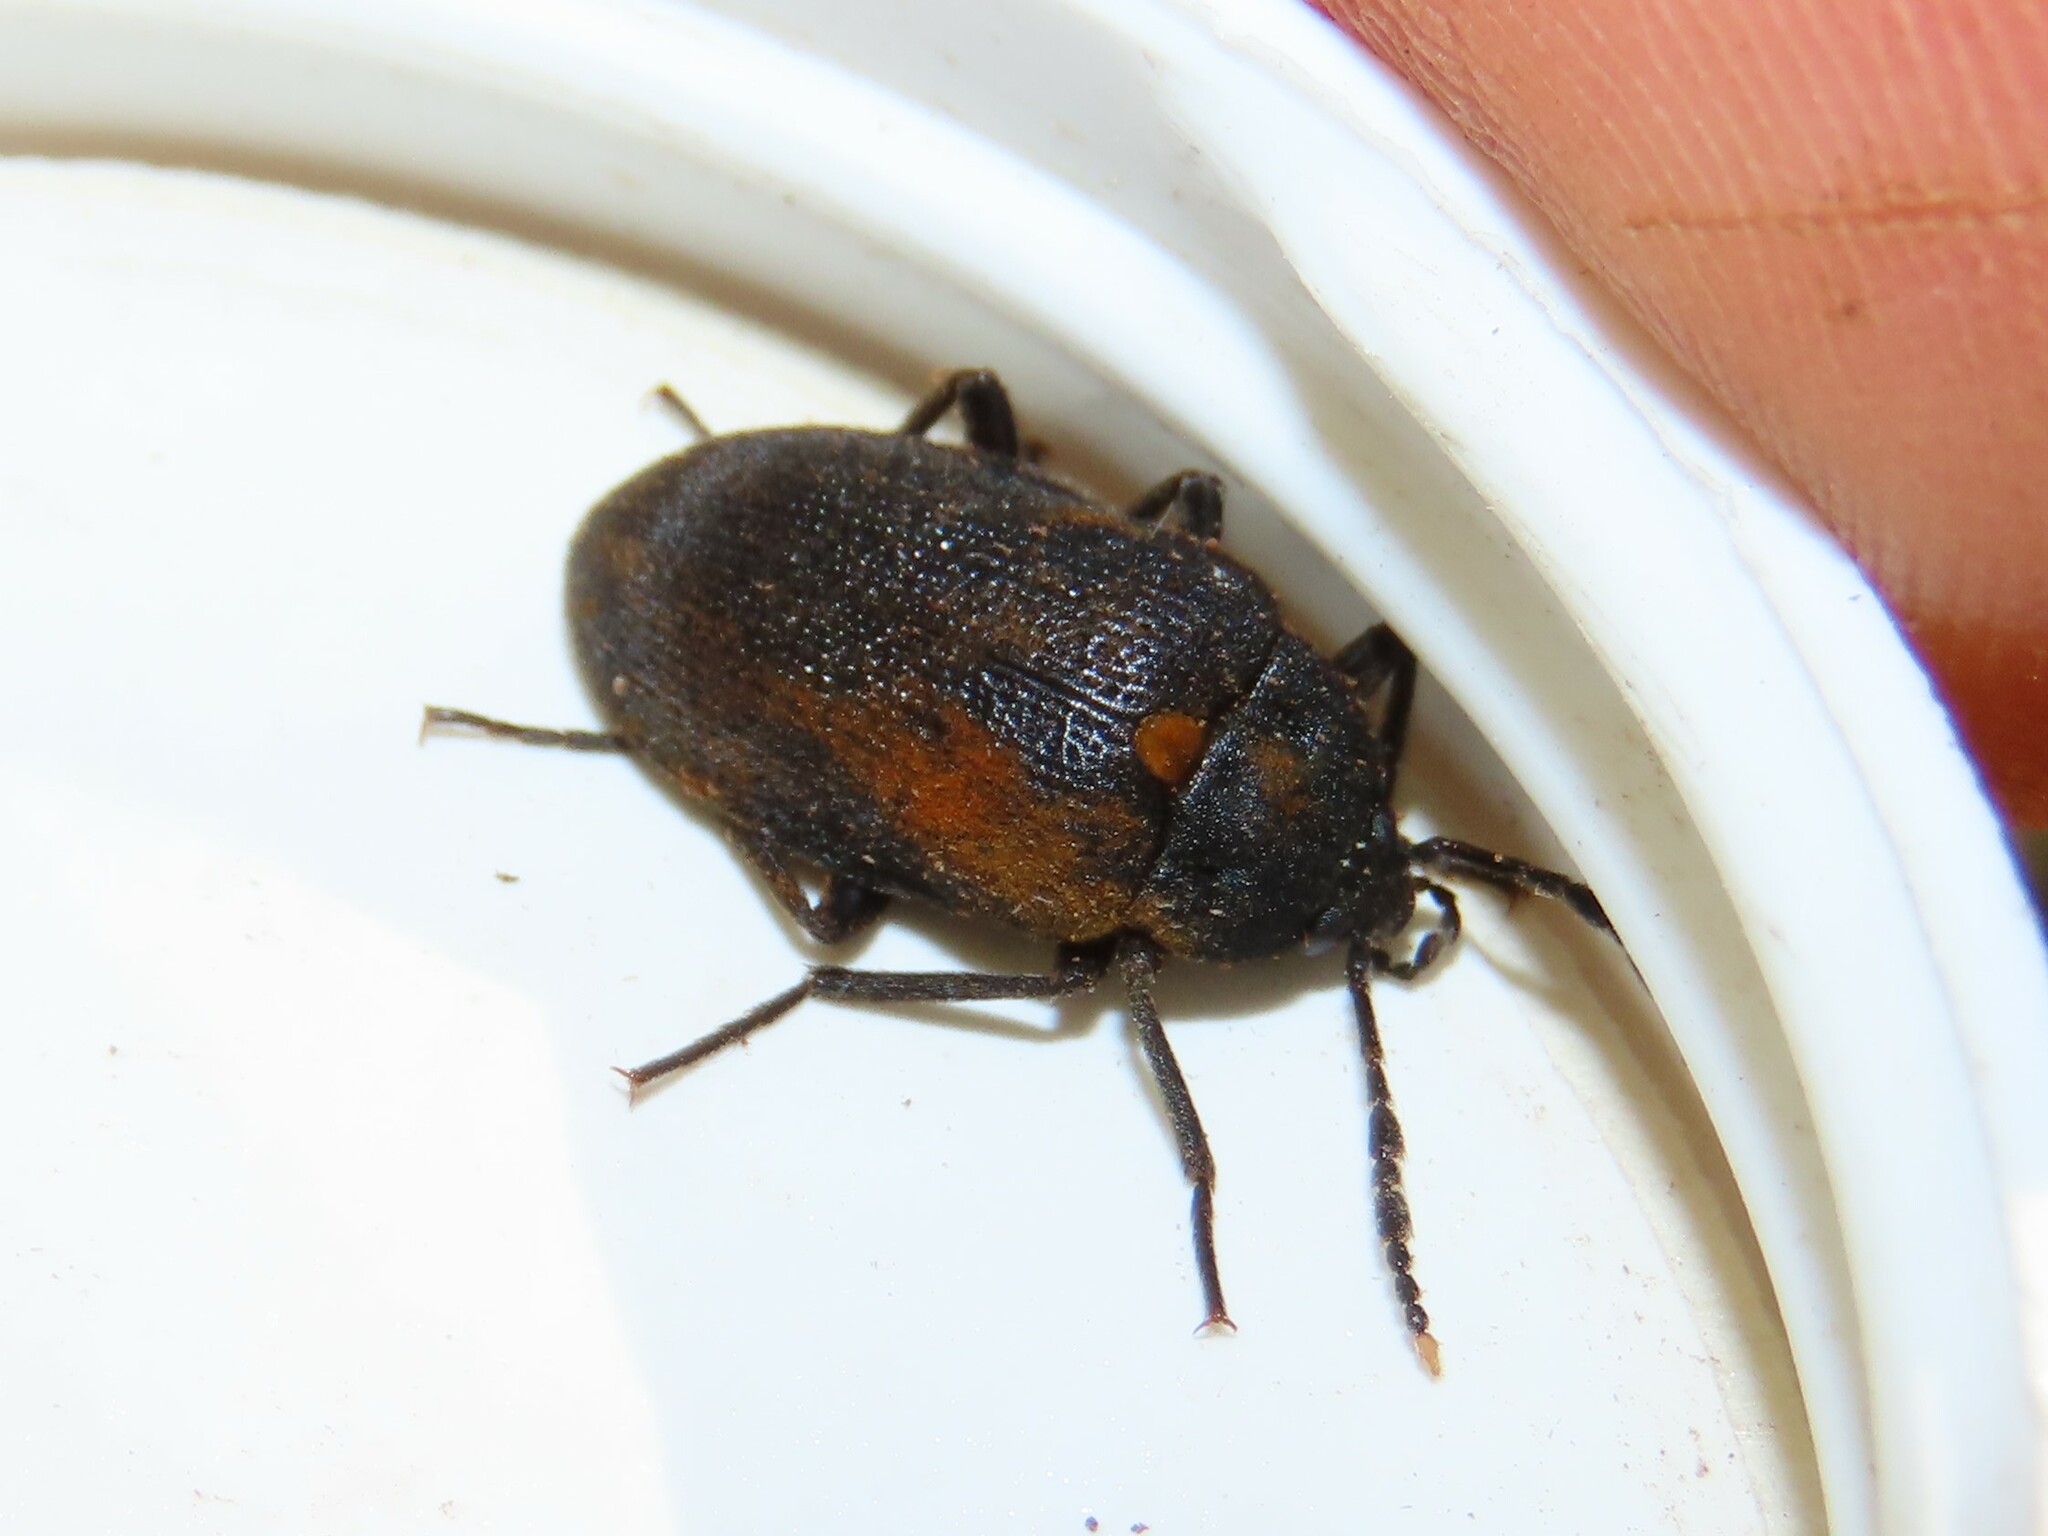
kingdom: Animalia
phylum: Arthropoda
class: Insecta
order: Coleoptera
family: Tetratomidae
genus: Penthe
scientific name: Penthe obliquata
